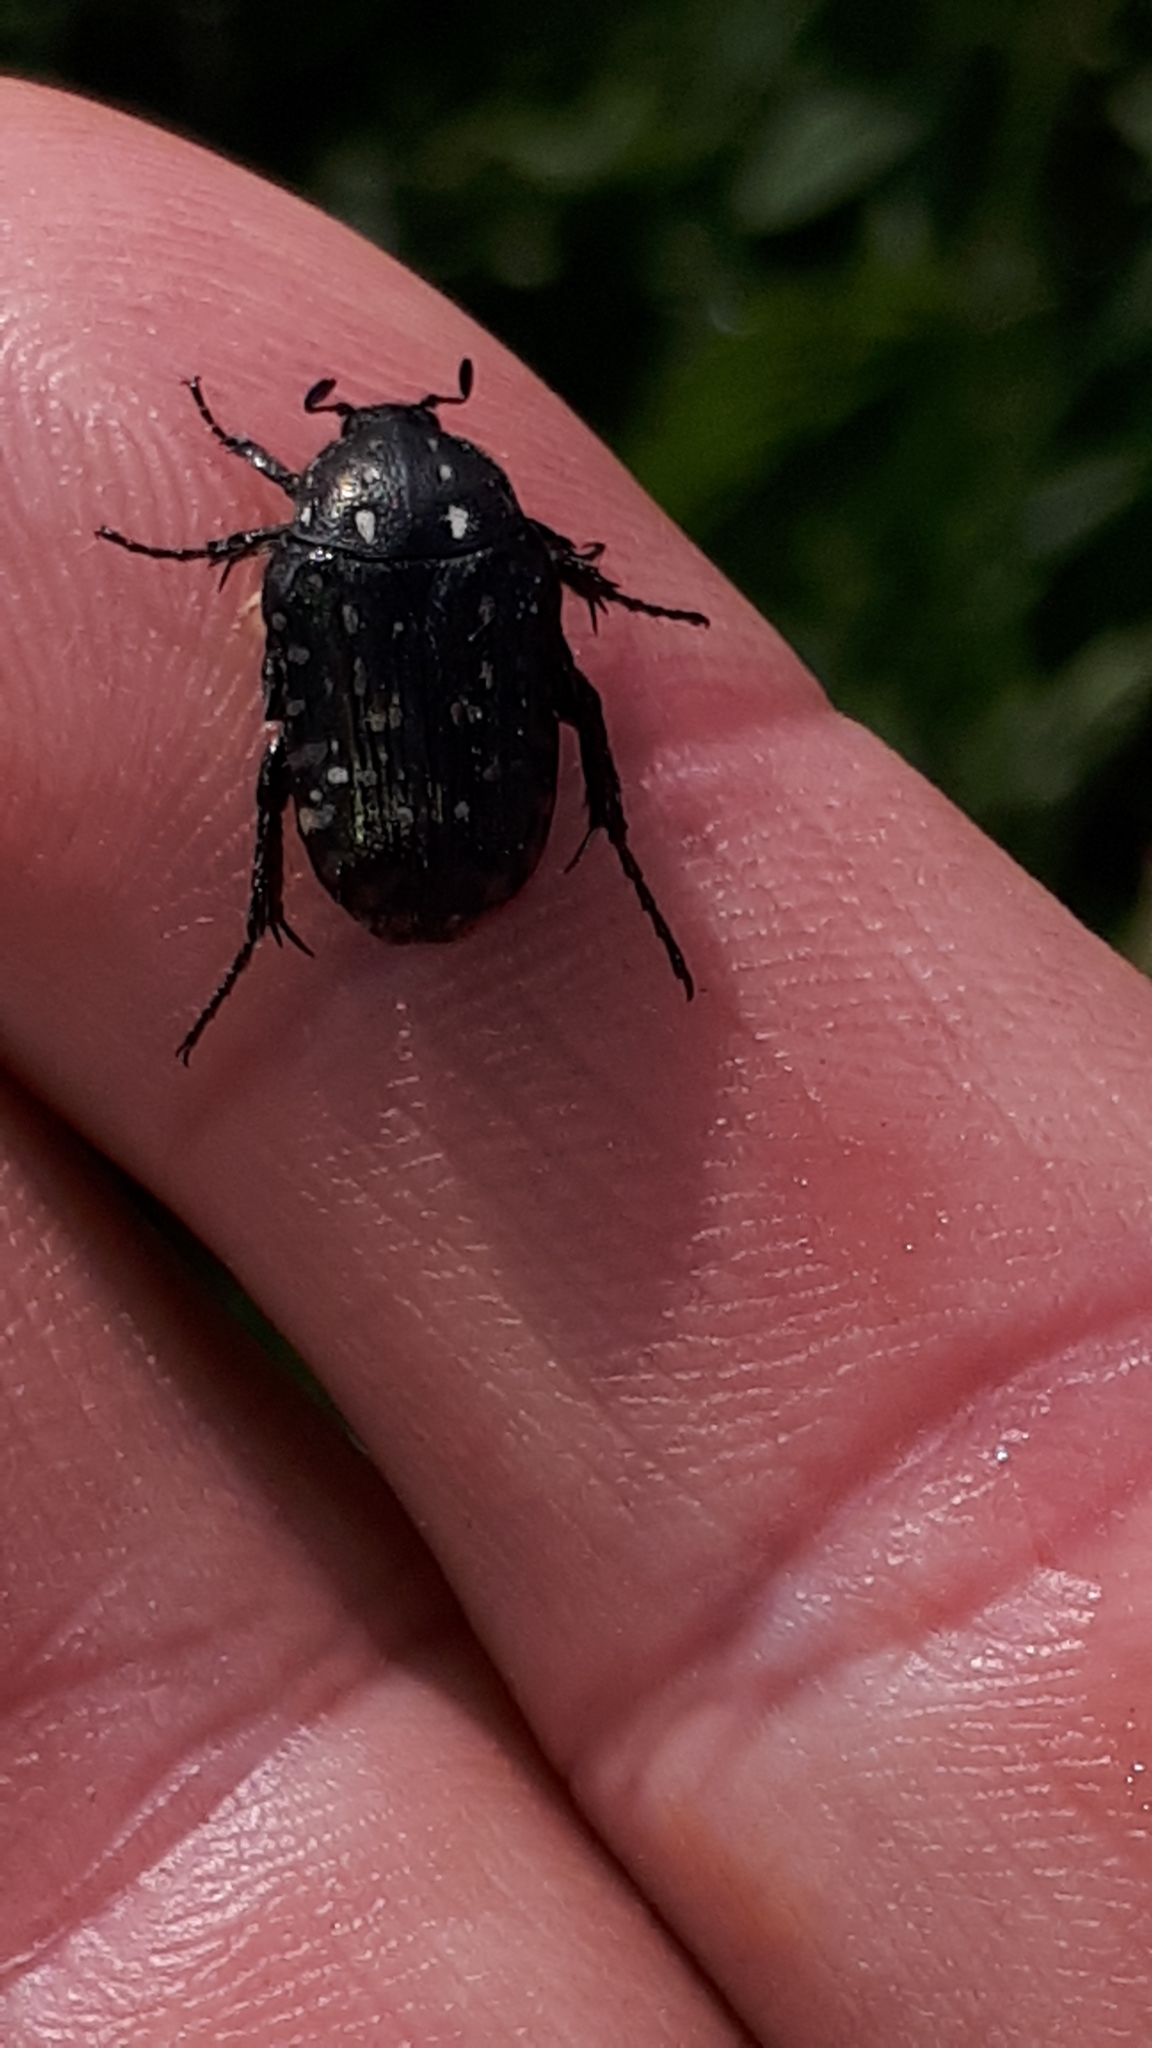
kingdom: Animalia
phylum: Arthropoda
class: Insecta
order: Coleoptera
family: Scarabaeidae
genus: Oxythyrea
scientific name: Oxythyrea funesta
